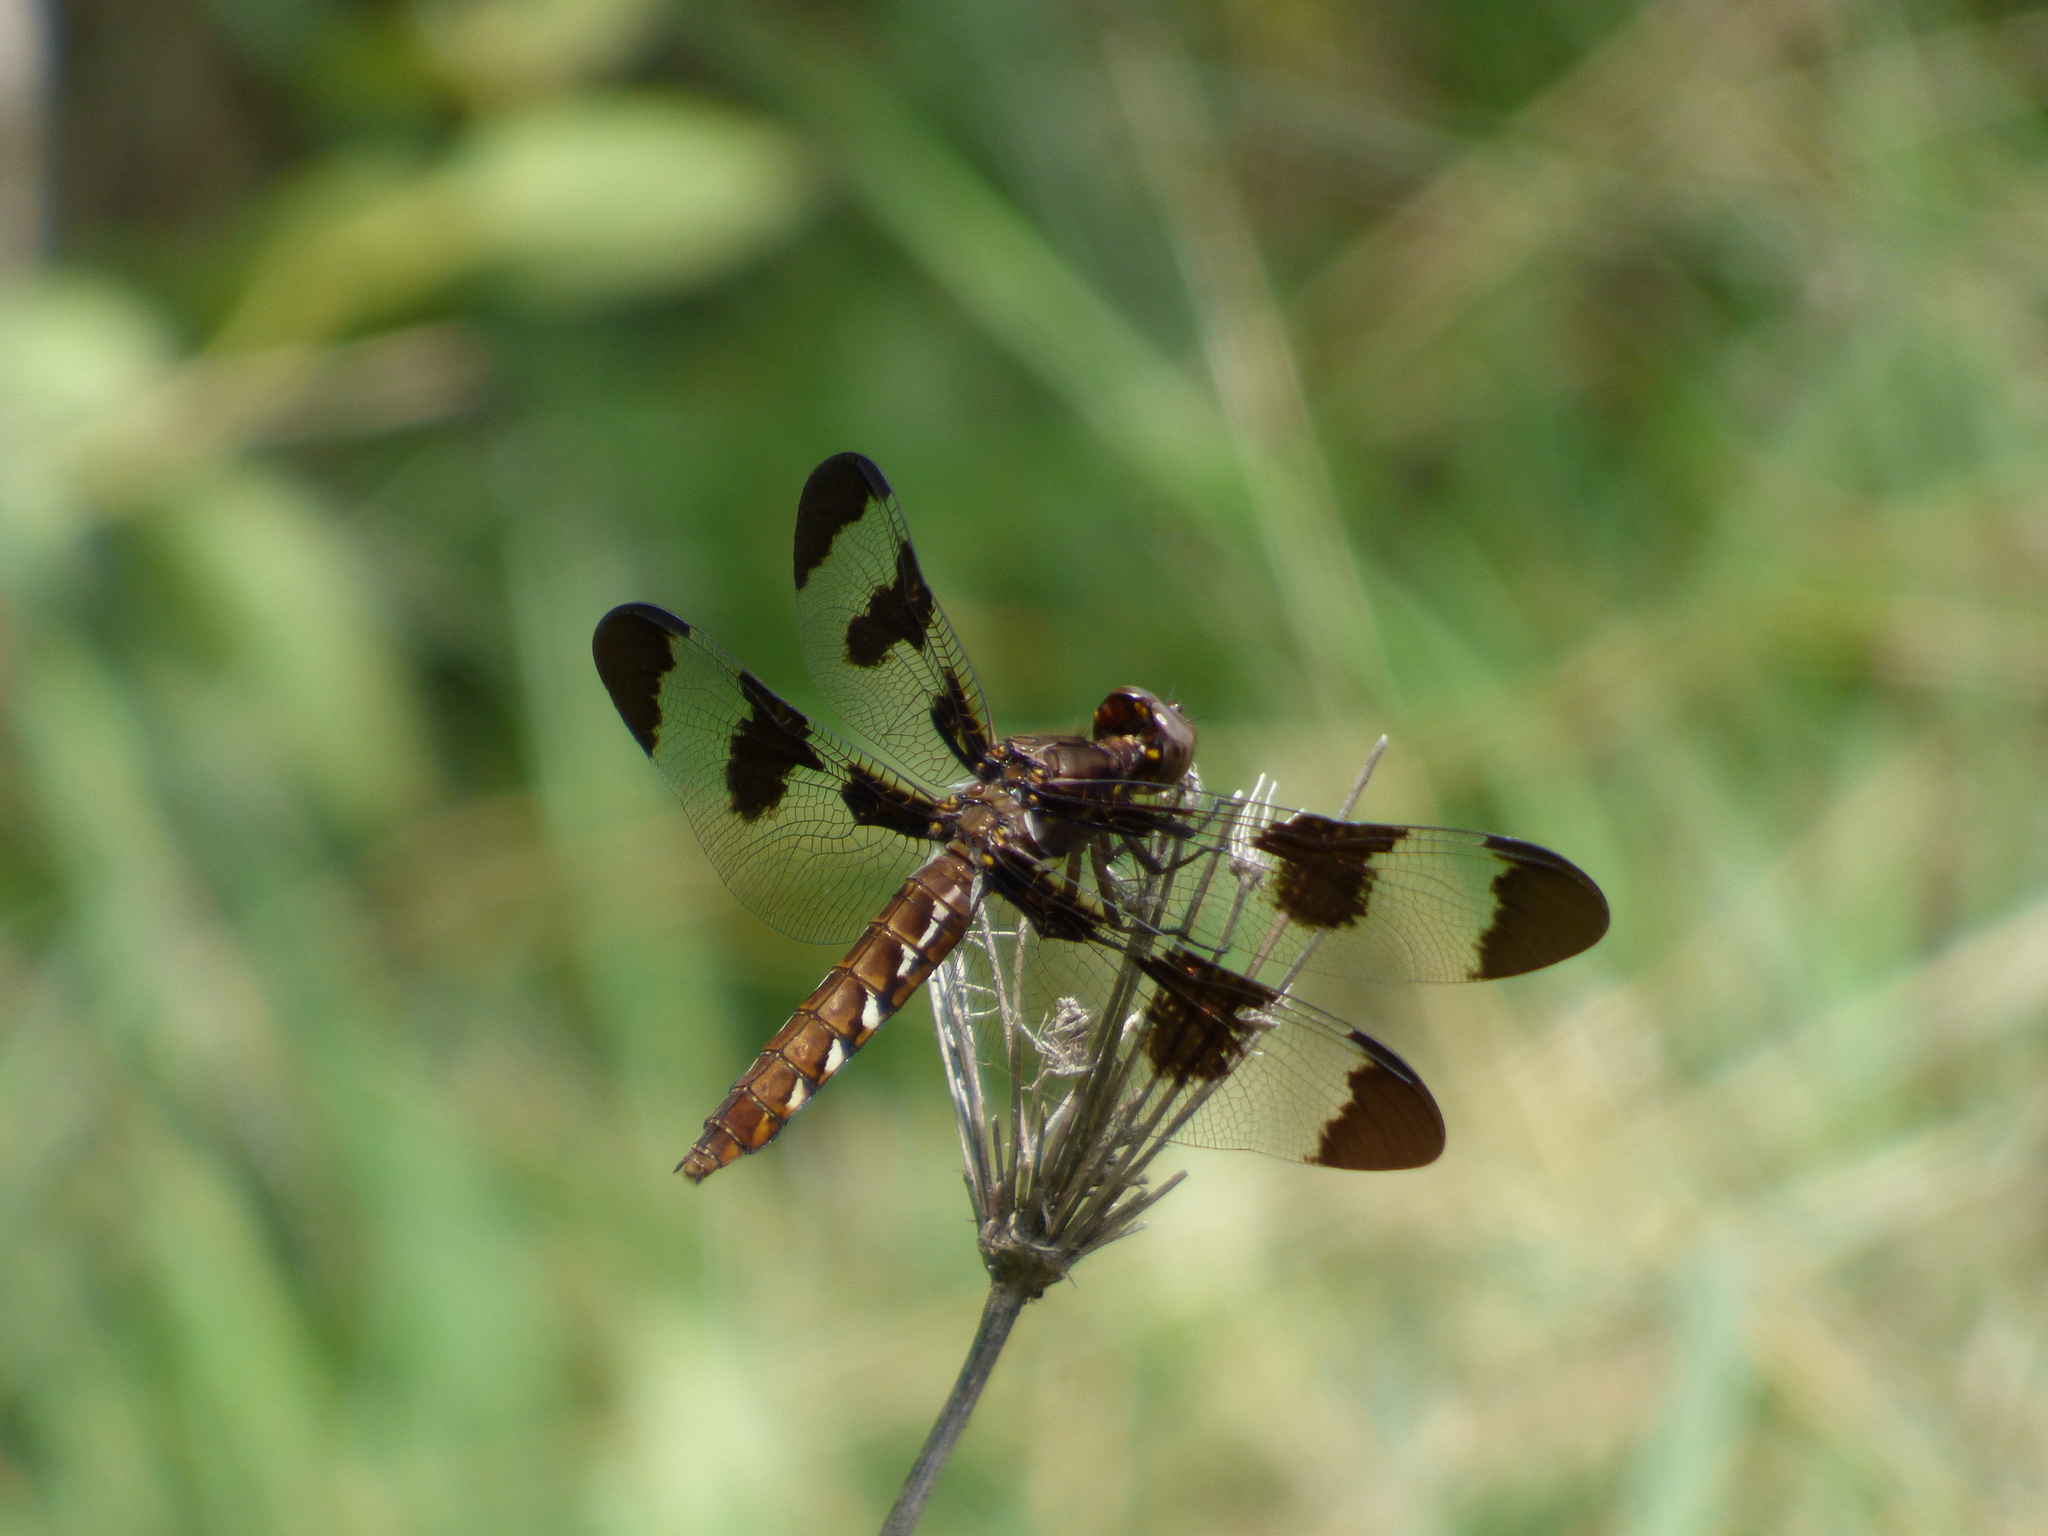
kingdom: Animalia
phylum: Arthropoda
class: Insecta
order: Odonata
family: Libellulidae
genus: Plathemis
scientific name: Plathemis lydia
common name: Common whitetail
